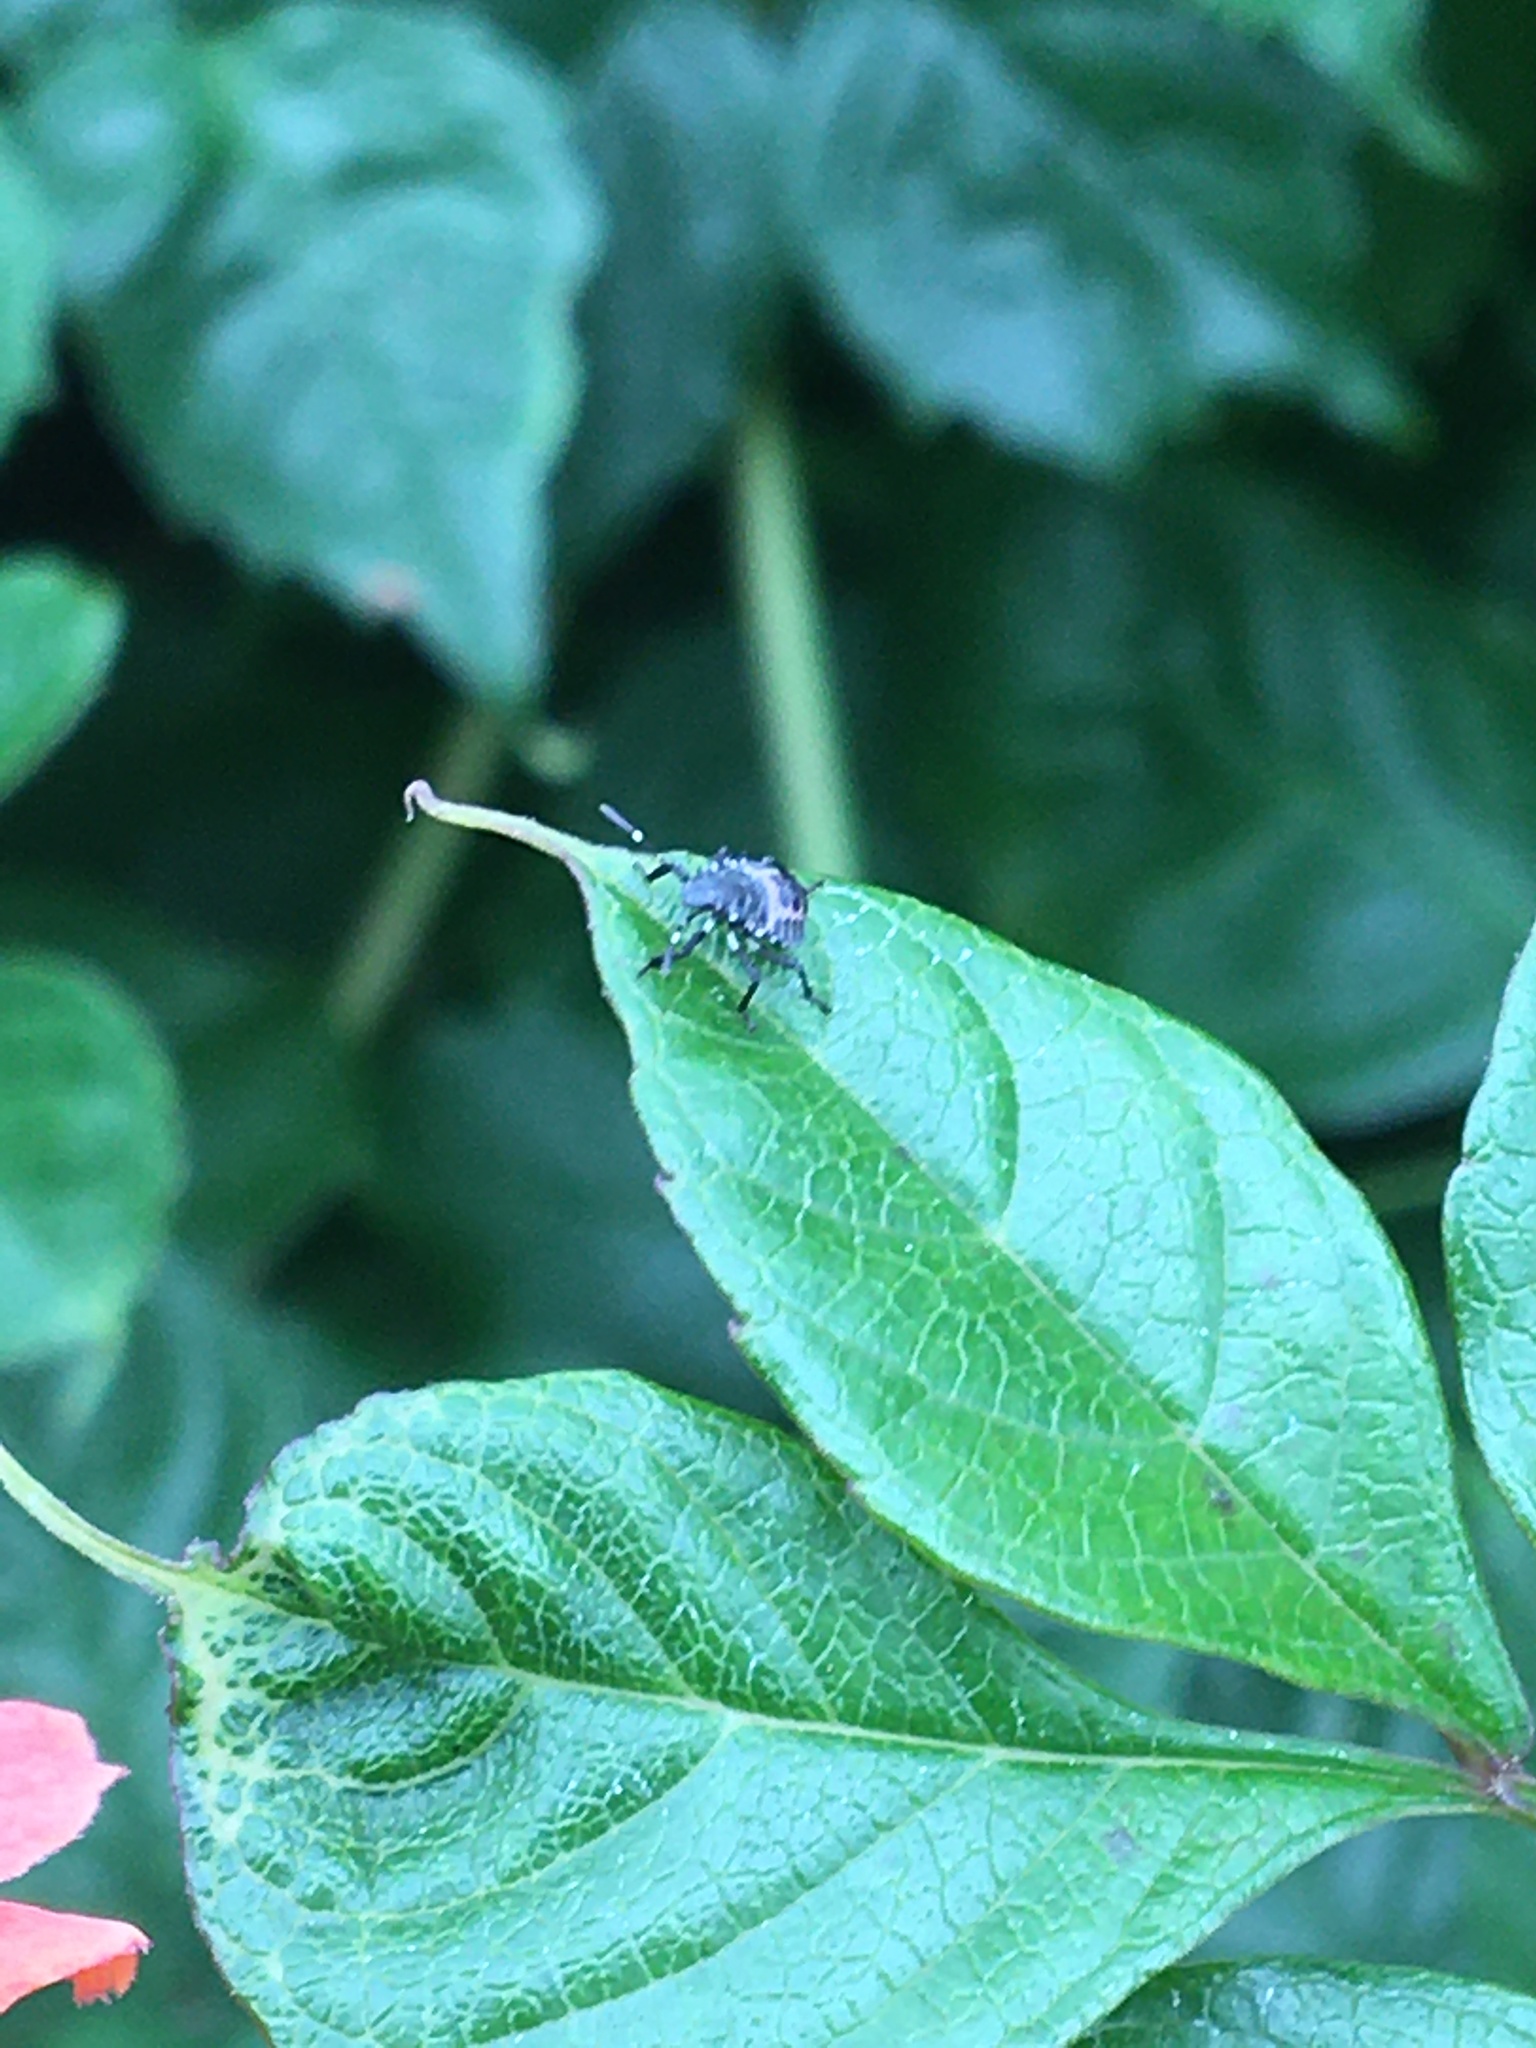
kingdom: Animalia
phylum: Arthropoda
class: Insecta
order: Hemiptera
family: Pentatomidae
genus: Halyomorpha
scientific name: Halyomorpha halys
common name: Brown marmorated stink bug
